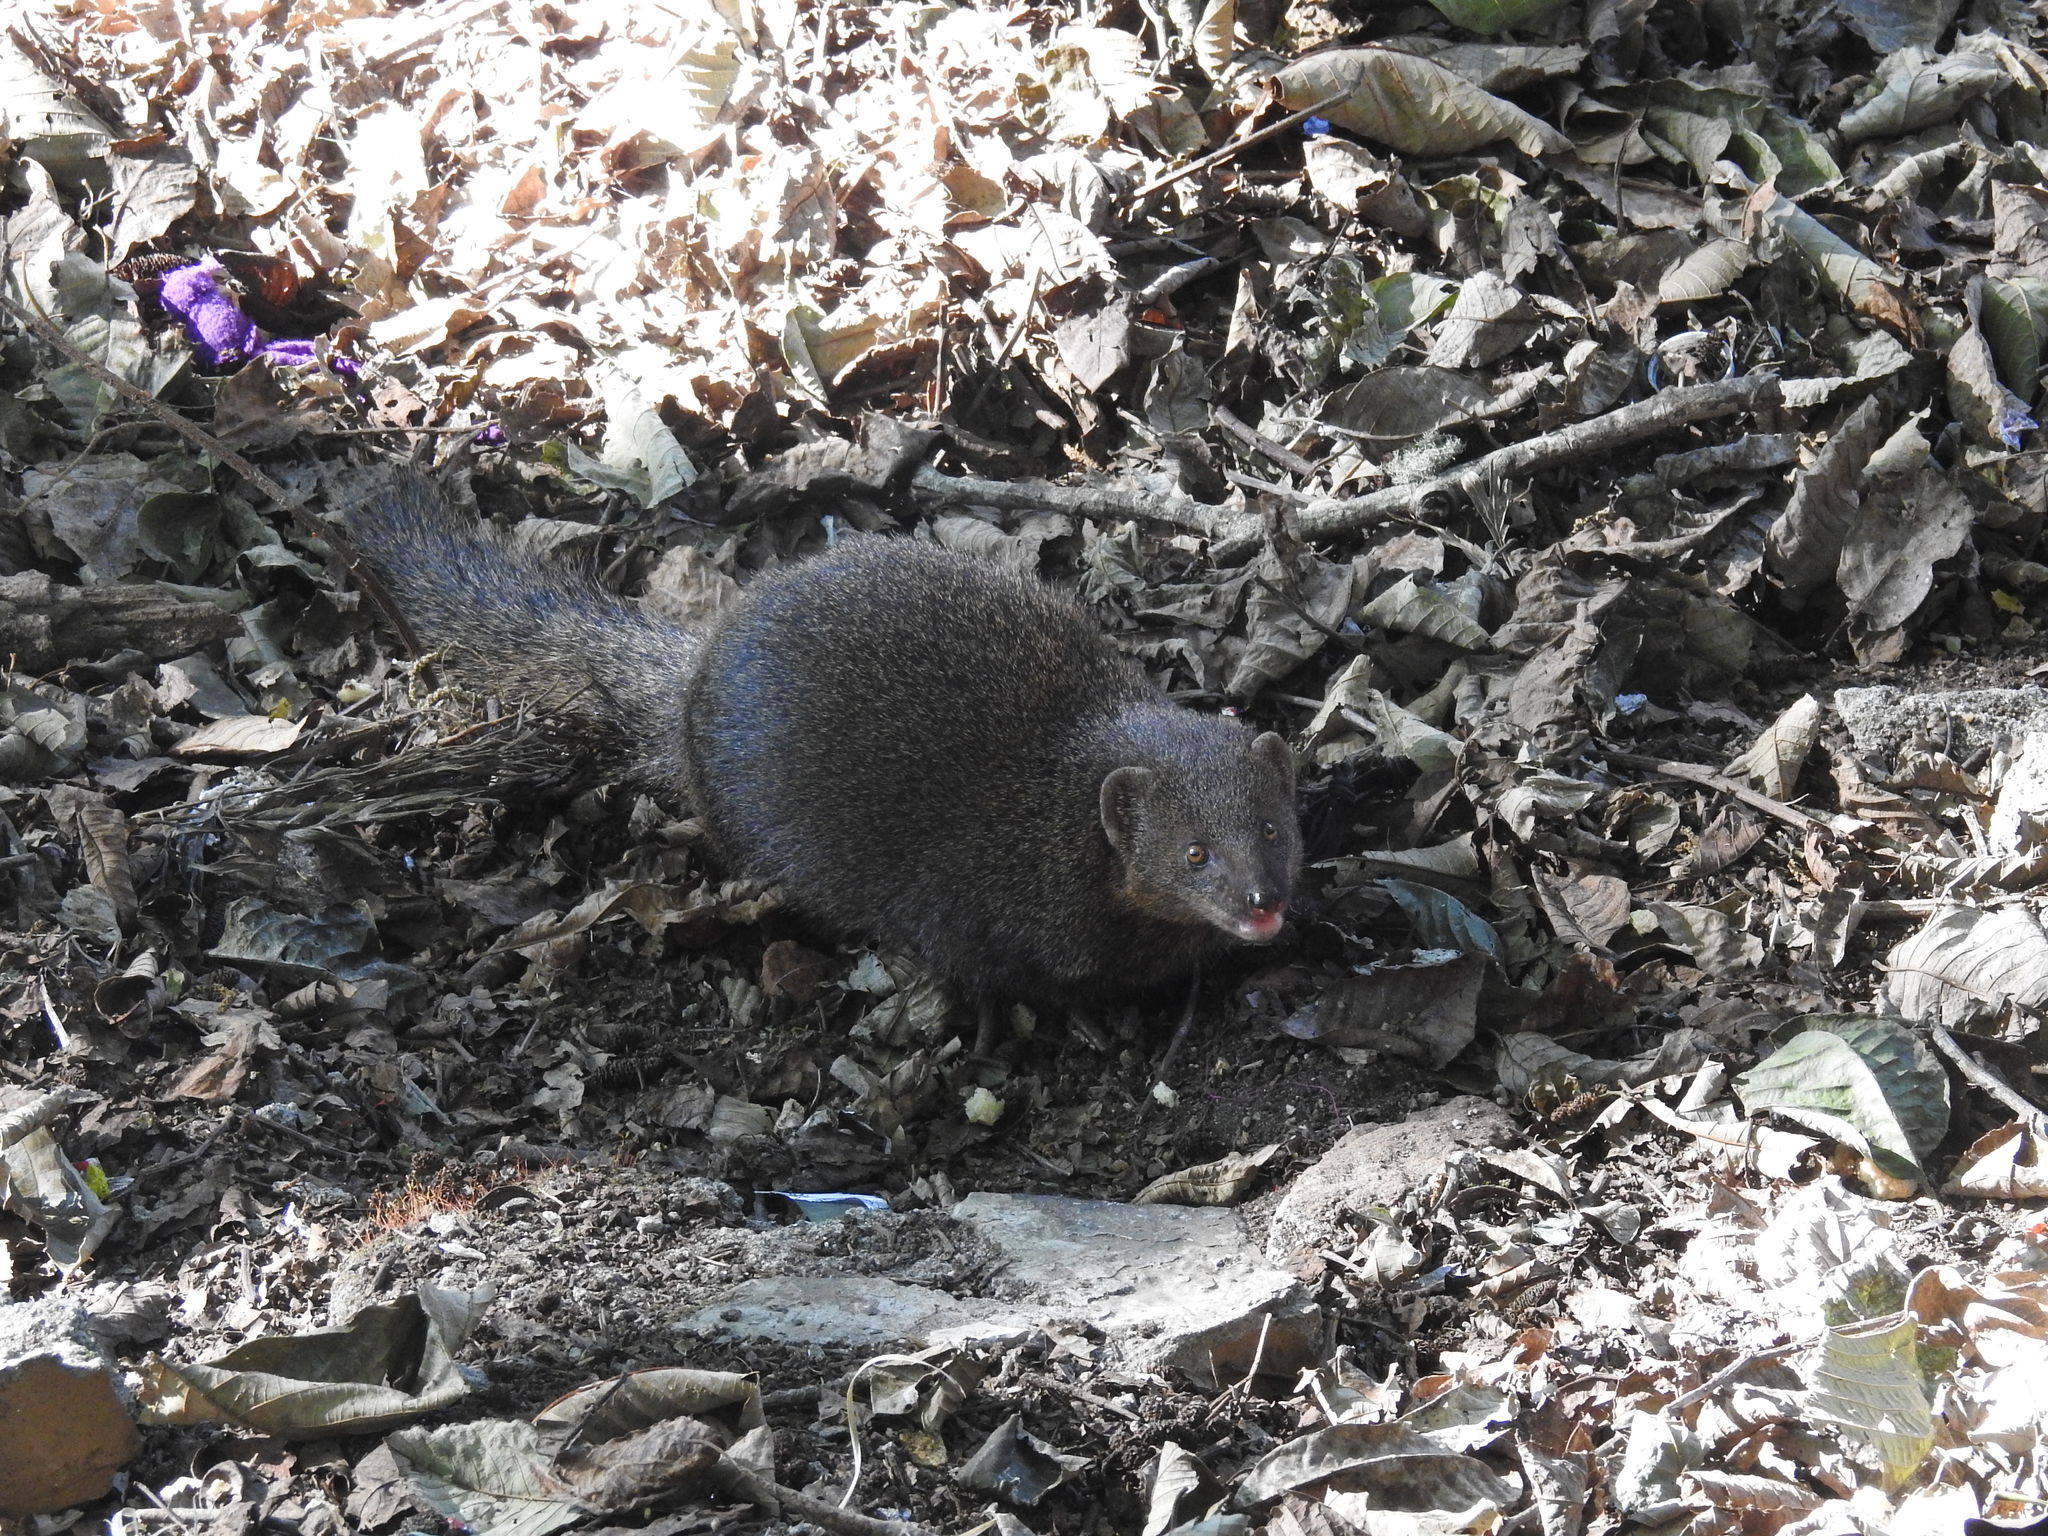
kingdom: Animalia
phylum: Chordata
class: Crocodylia
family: Crocodylidae
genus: Crocodylus
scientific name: Crocodylus palustris
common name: Mugger crocodile
